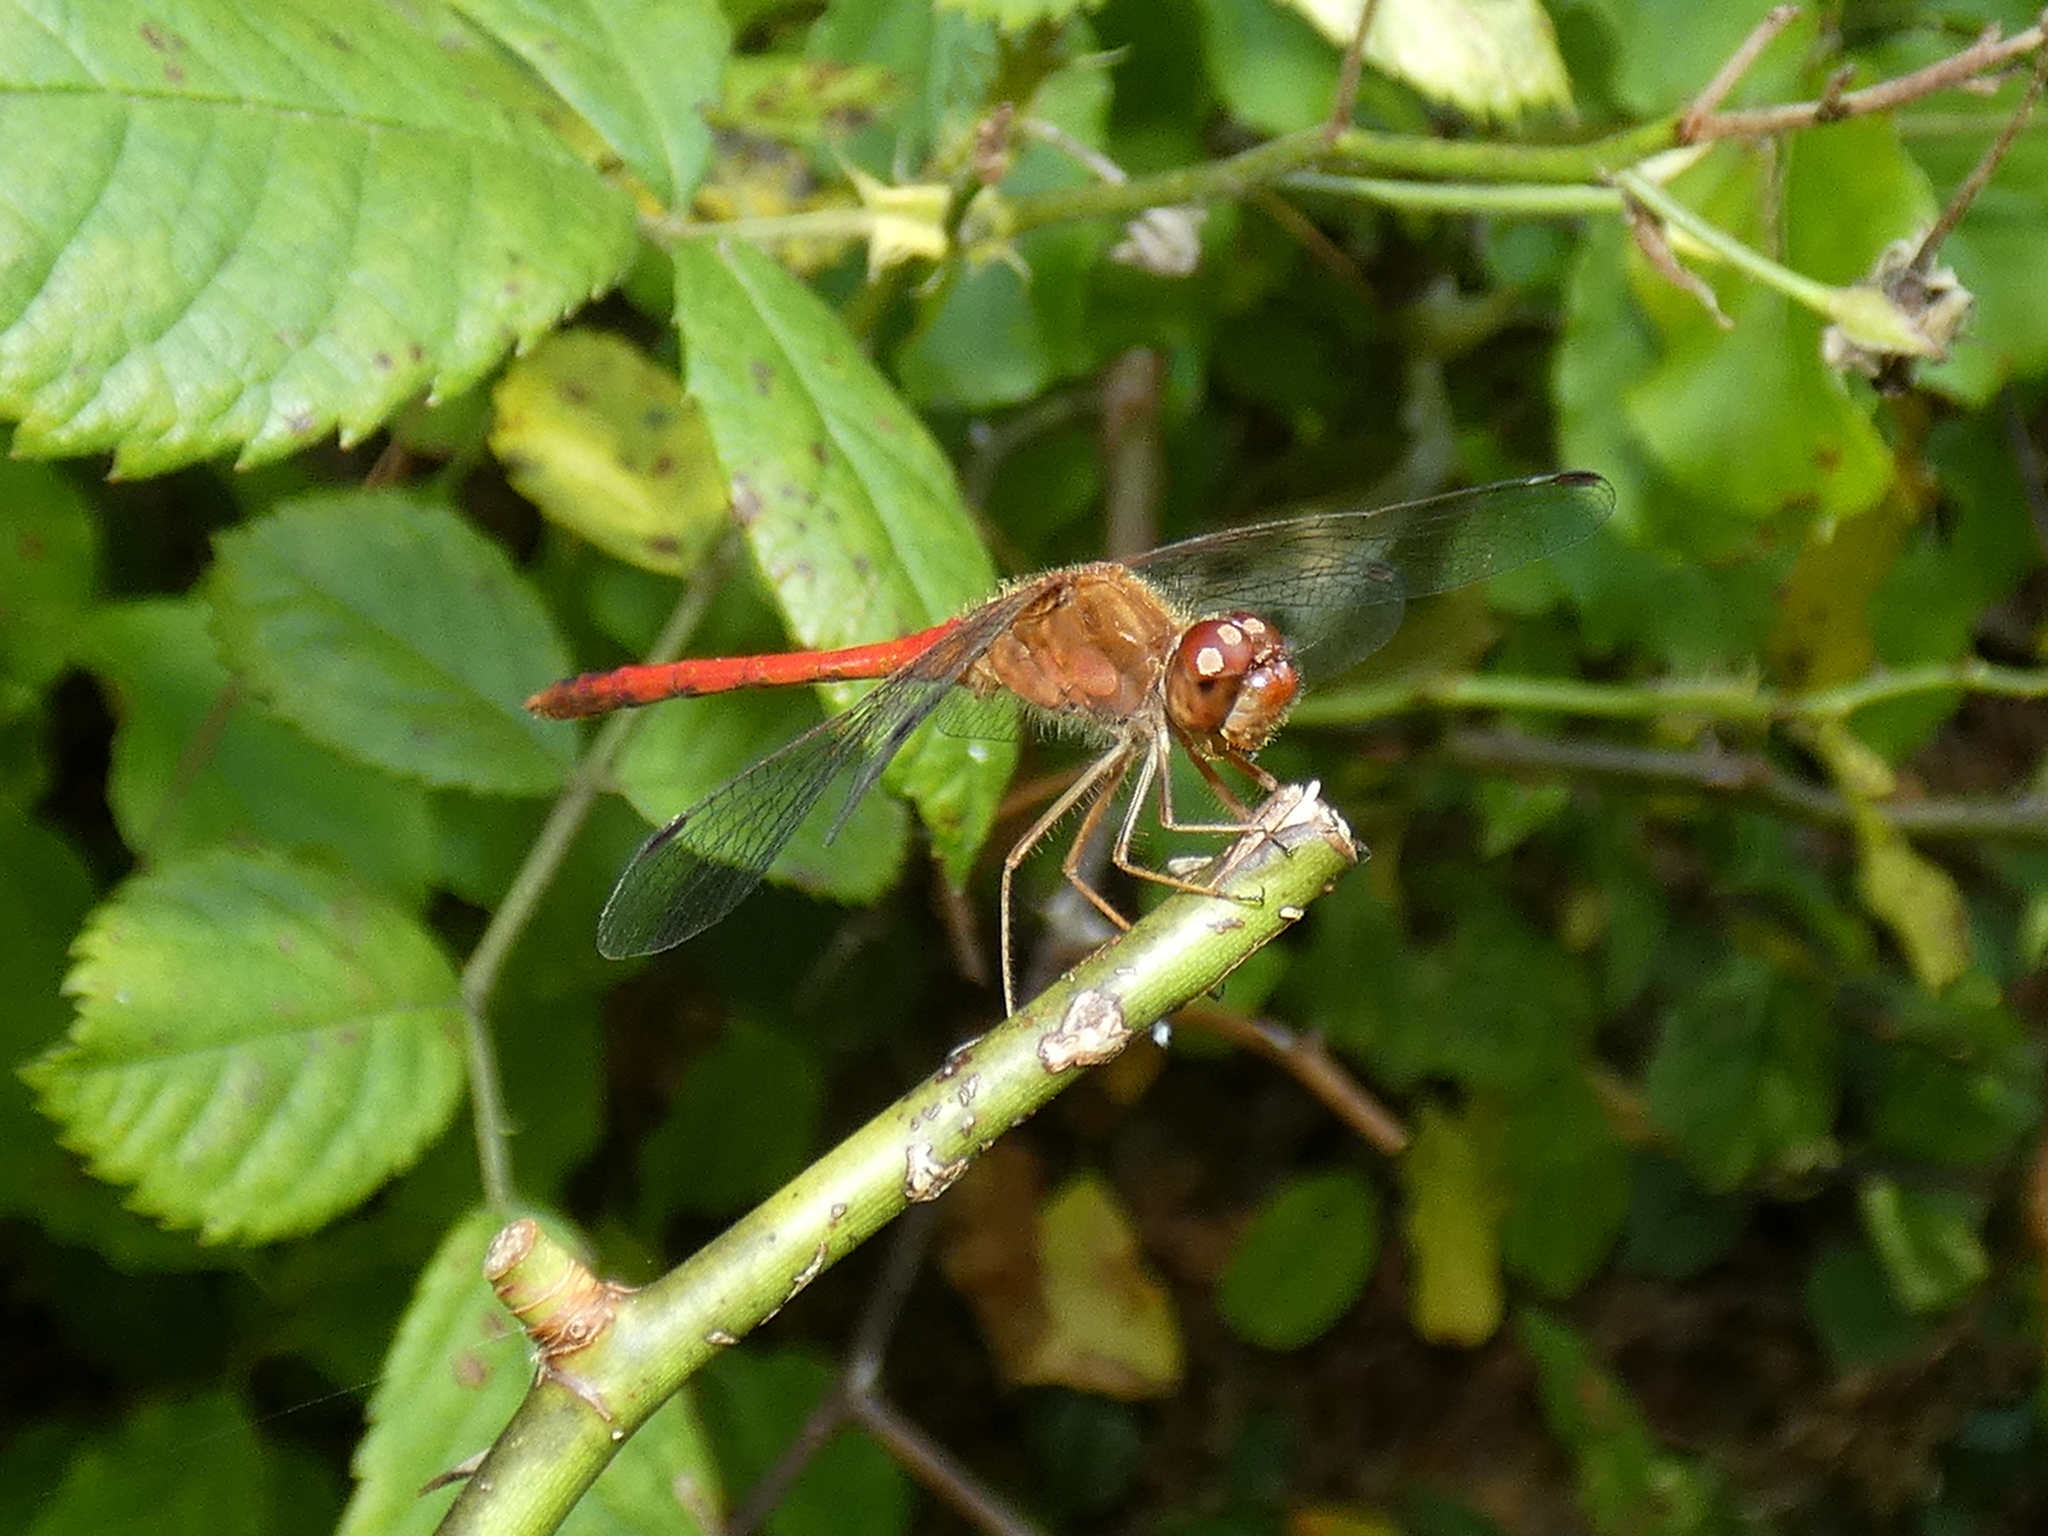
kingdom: Animalia
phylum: Arthropoda
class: Insecta
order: Odonata
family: Libellulidae
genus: Sympetrum
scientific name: Sympetrum vicinum
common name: Autumn meadowhawk
